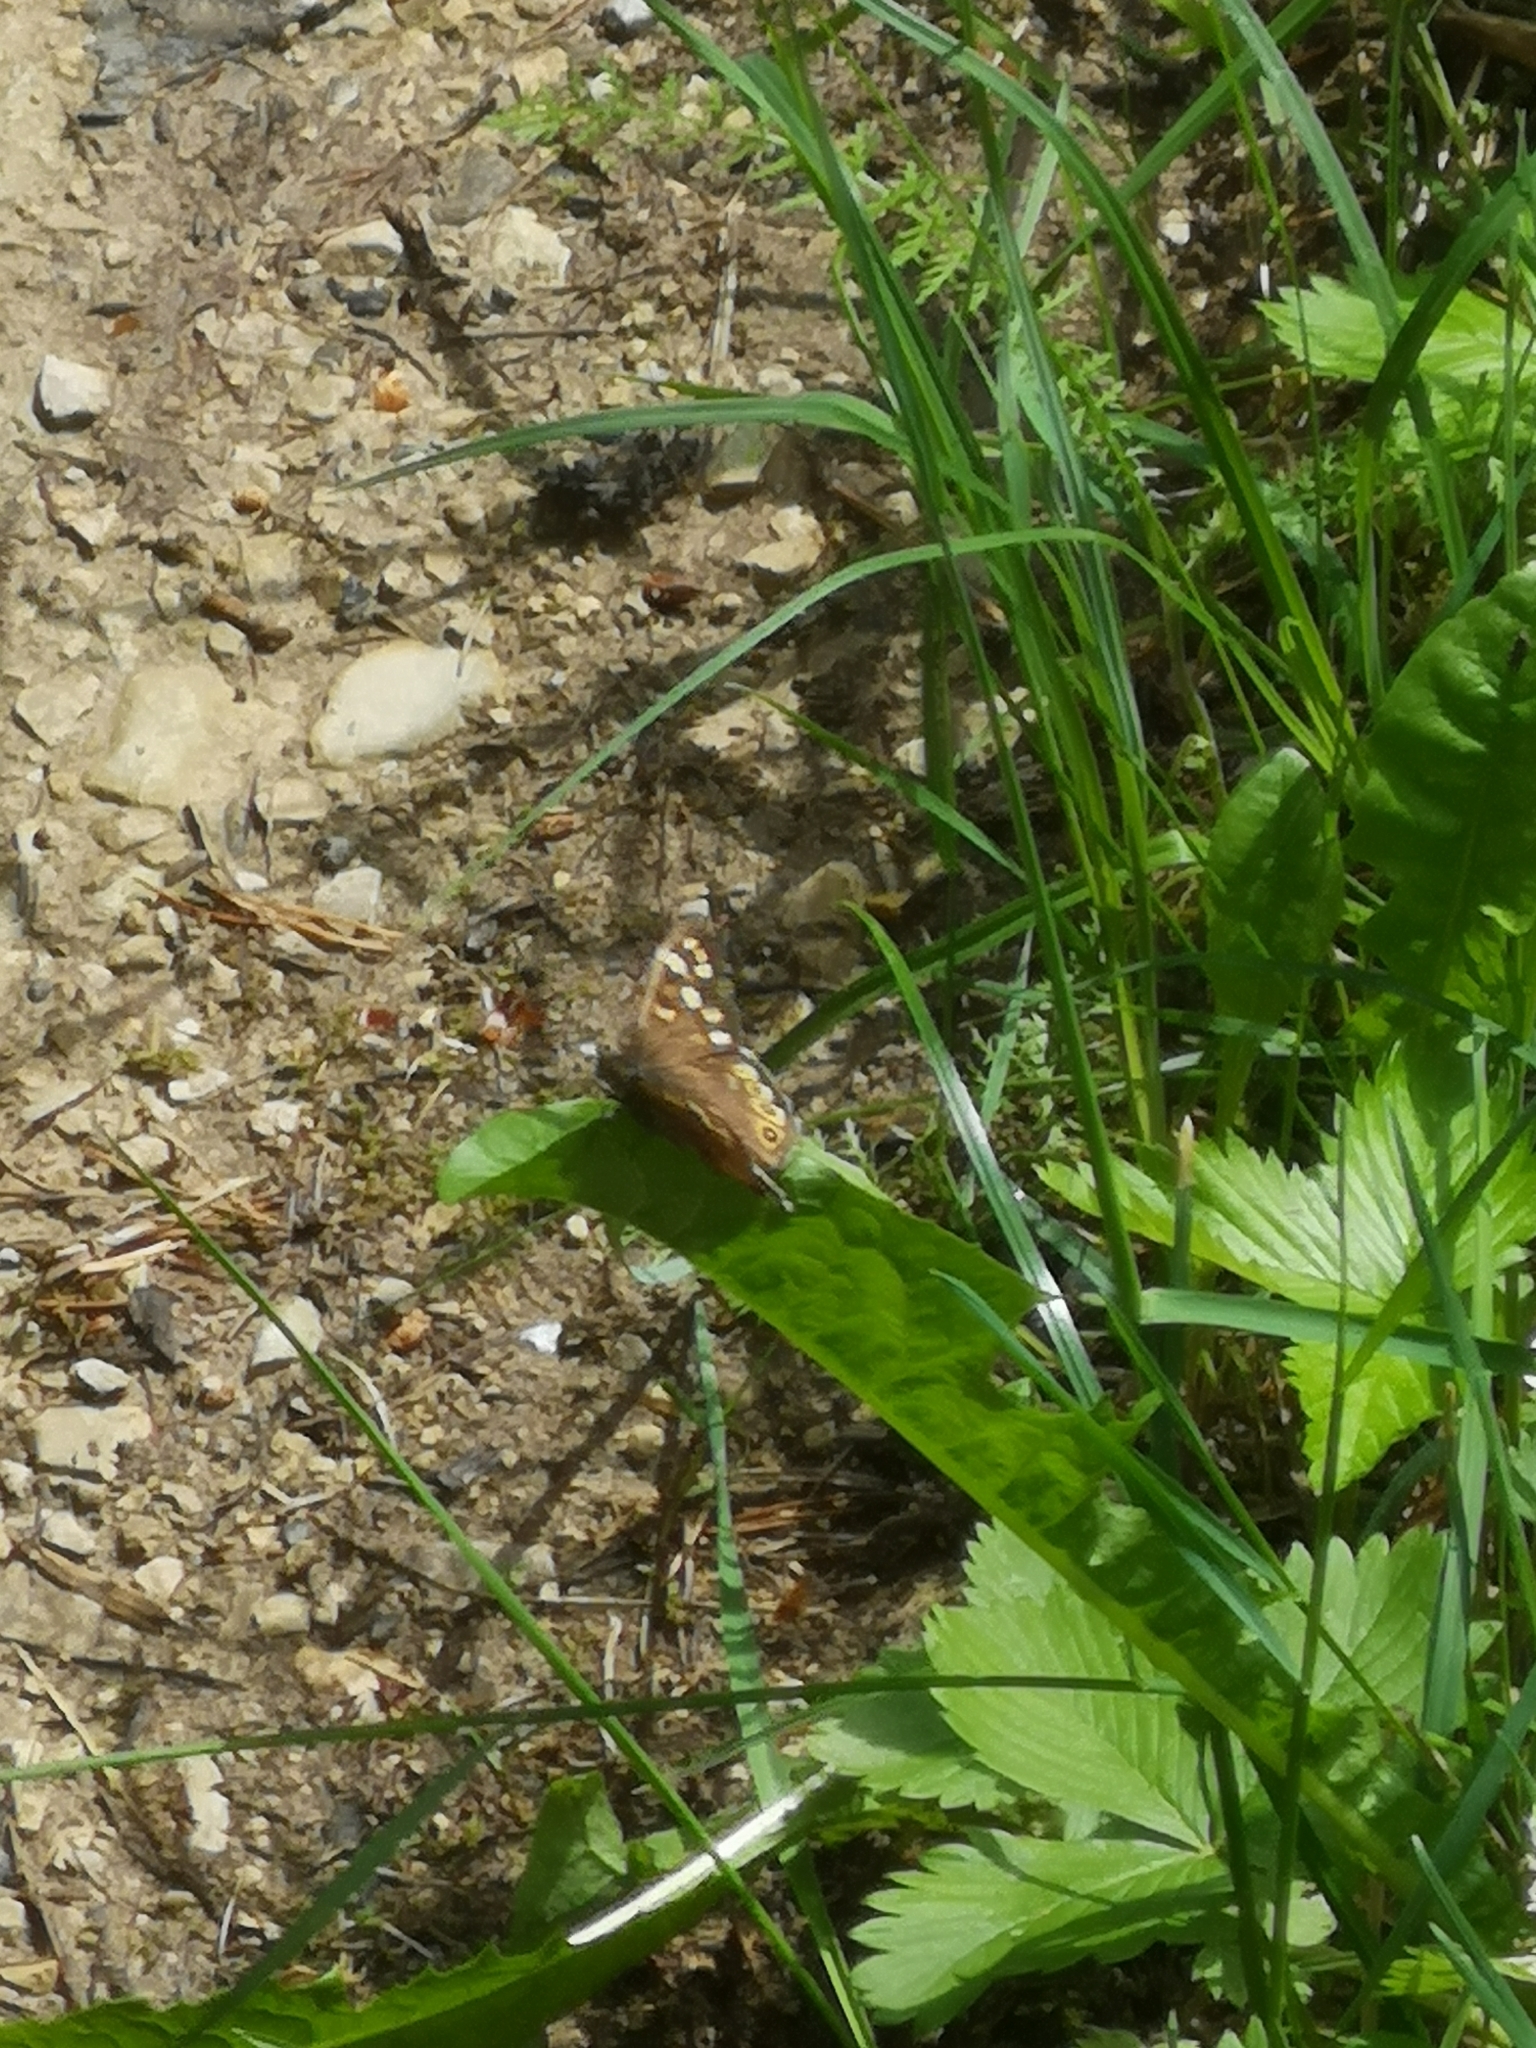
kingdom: Animalia
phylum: Arthropoda
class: Insecta
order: Lepidoptera
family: Nymphalidae
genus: Pararge
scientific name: Pararge aegeria
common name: Speckled wood
